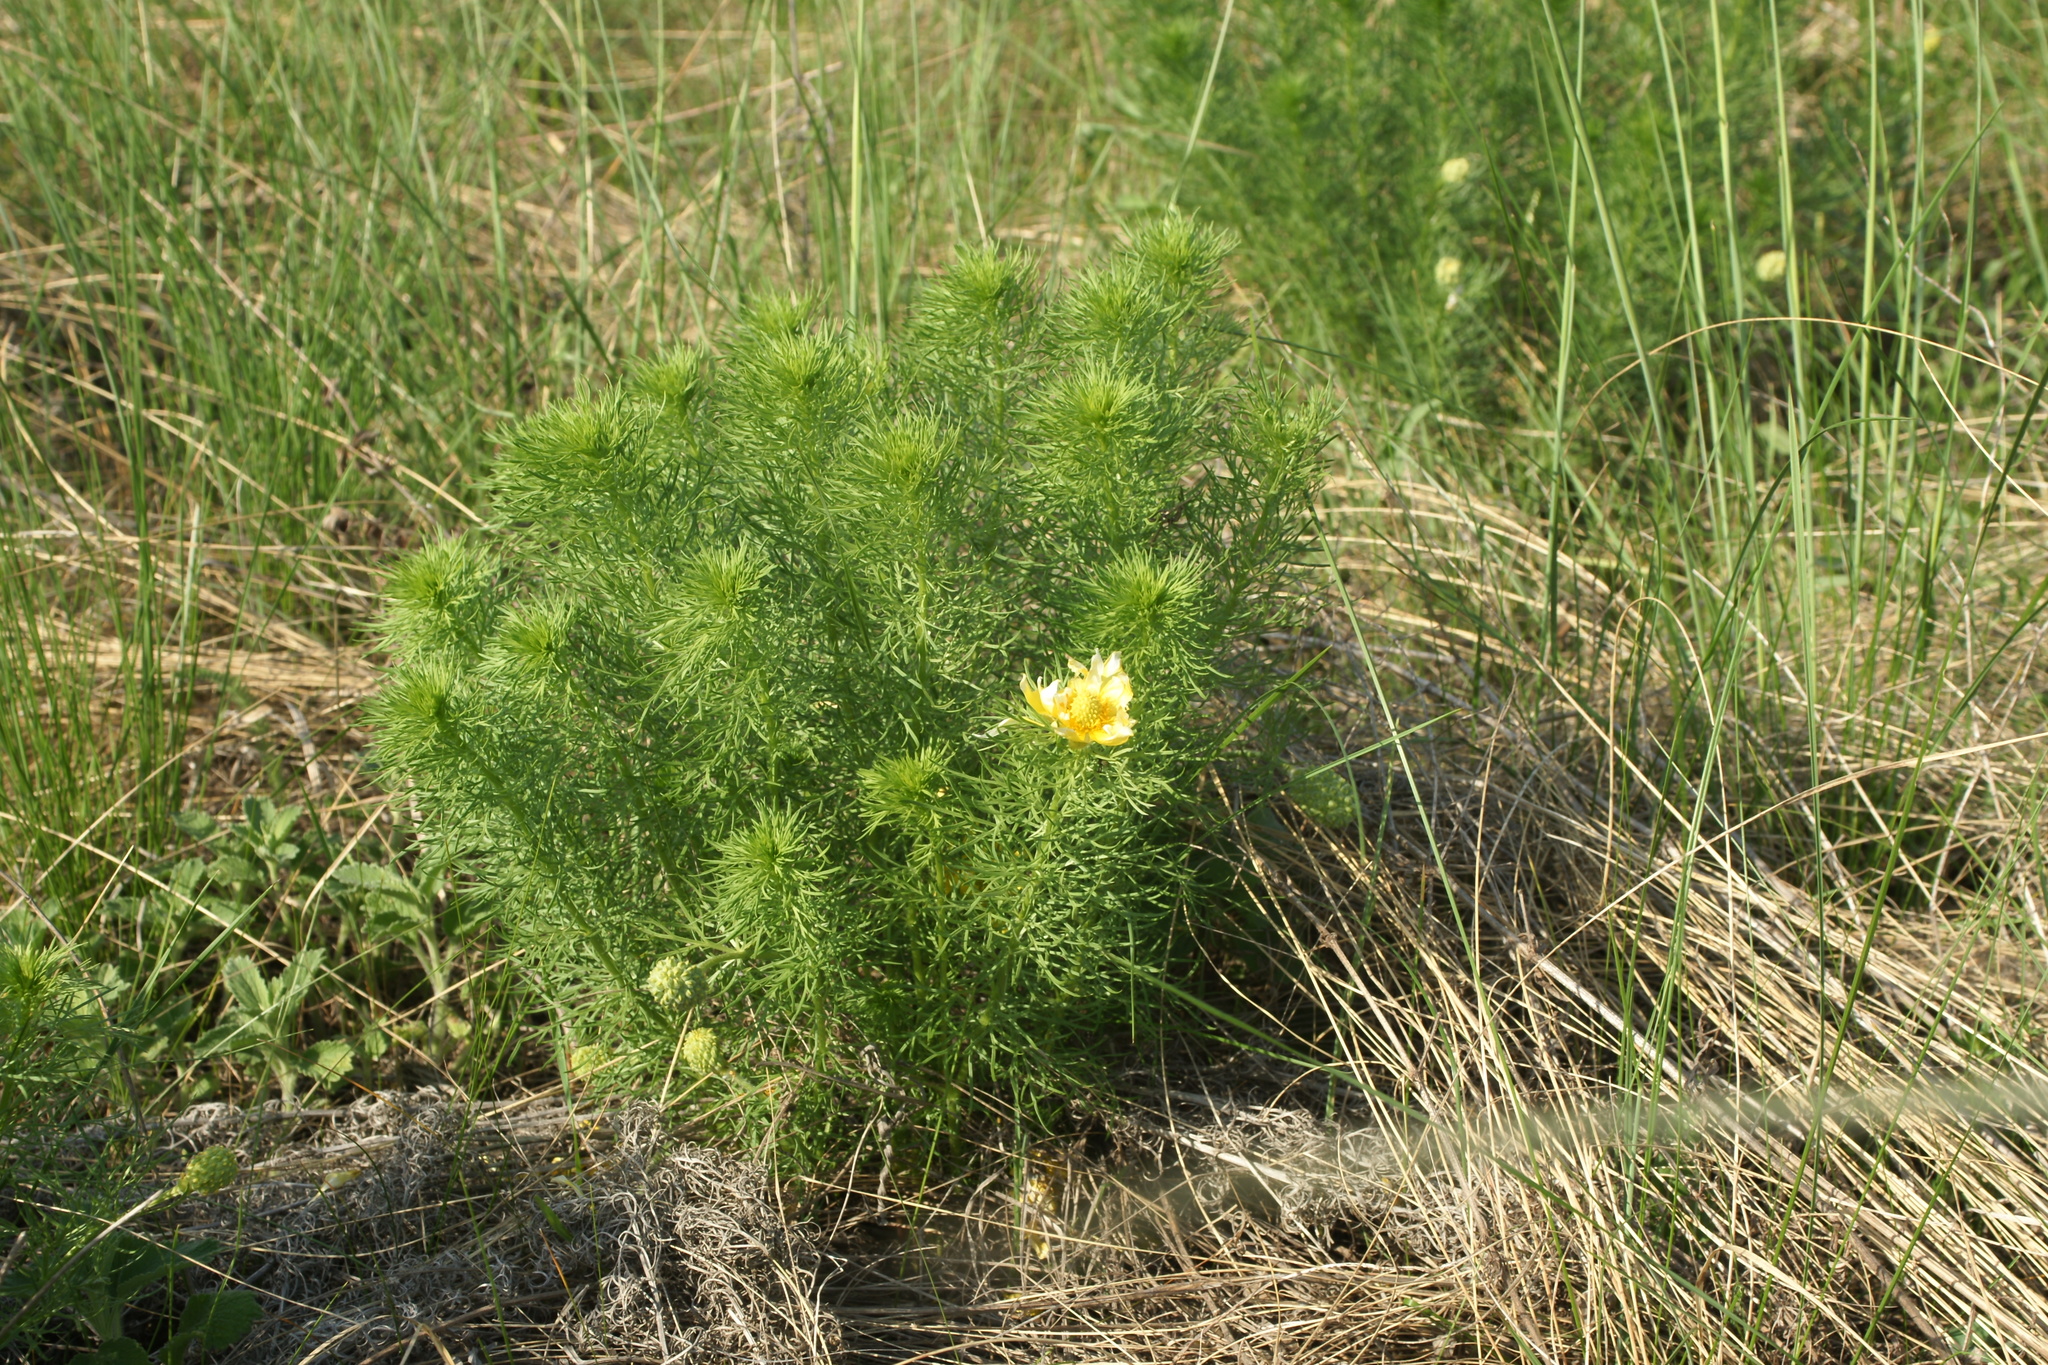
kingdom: Plantae
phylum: Tracheophyta
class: Magnoliopsida
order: Ranunculales
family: Ranunculaceae
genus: Adonis
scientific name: Adonis vernalis
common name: Yellow pheasants-eye
